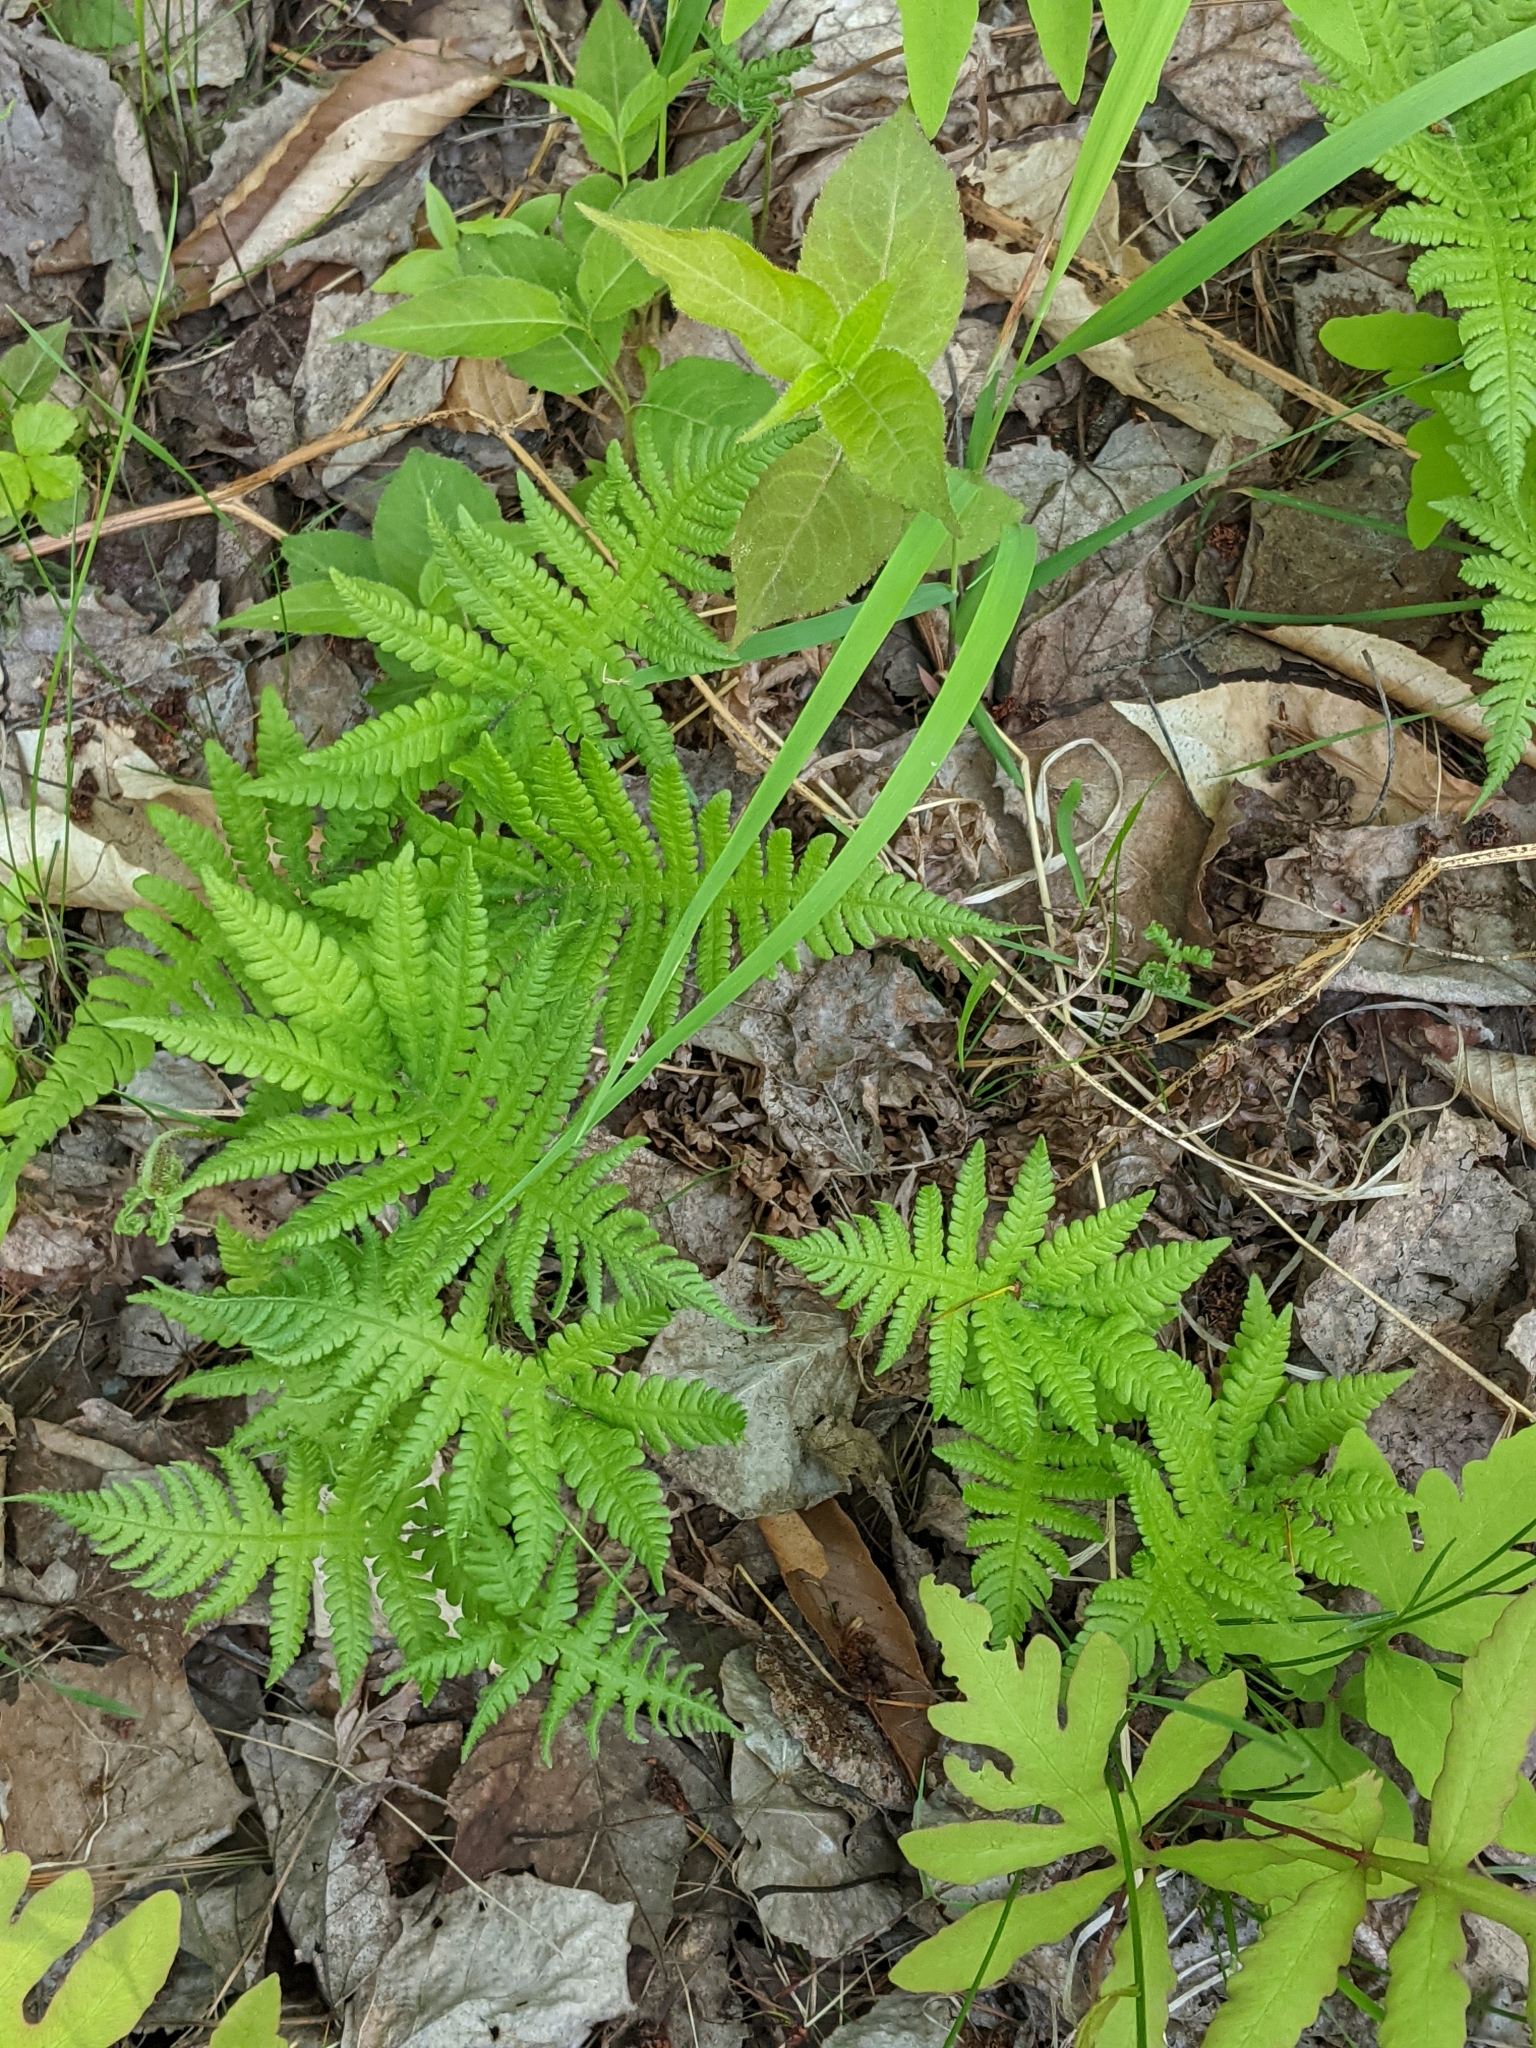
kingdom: Plantae
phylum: Tracheophyta
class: Polypodiopsida
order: Polypodiales
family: Thelypteridaceae
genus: Phegopteris
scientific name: Phegopteris connectilis
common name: Beech fern
